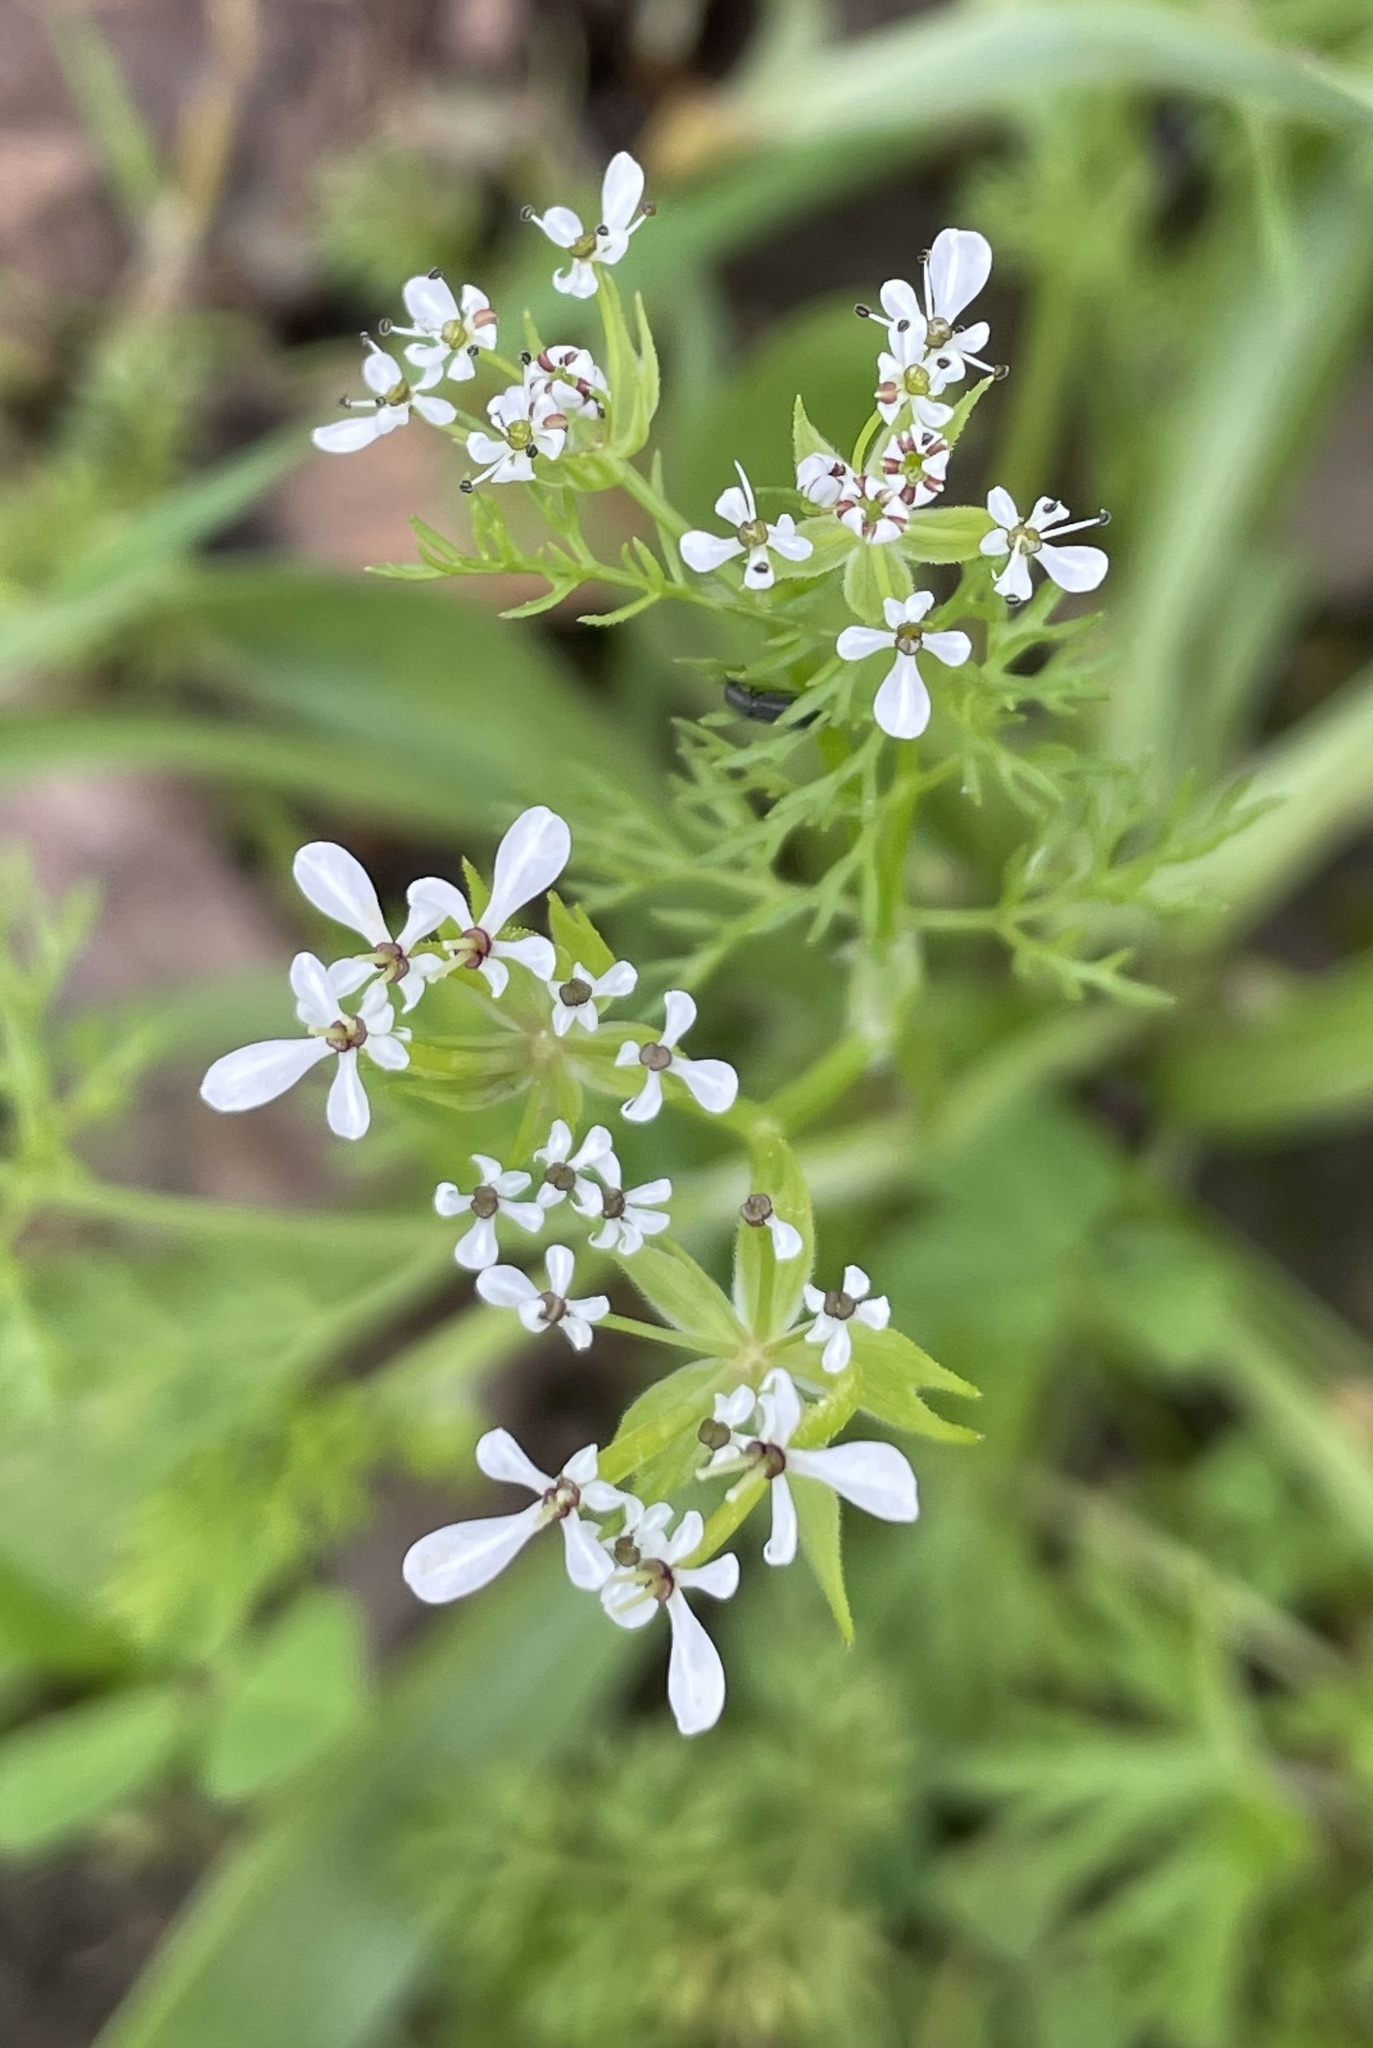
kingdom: Plantae
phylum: Tracheophyta
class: Magnoliopsida
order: Apiales
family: Apiaceae
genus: Scandix
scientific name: Scandix pecten-veneris
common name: Shepherd's-needle
